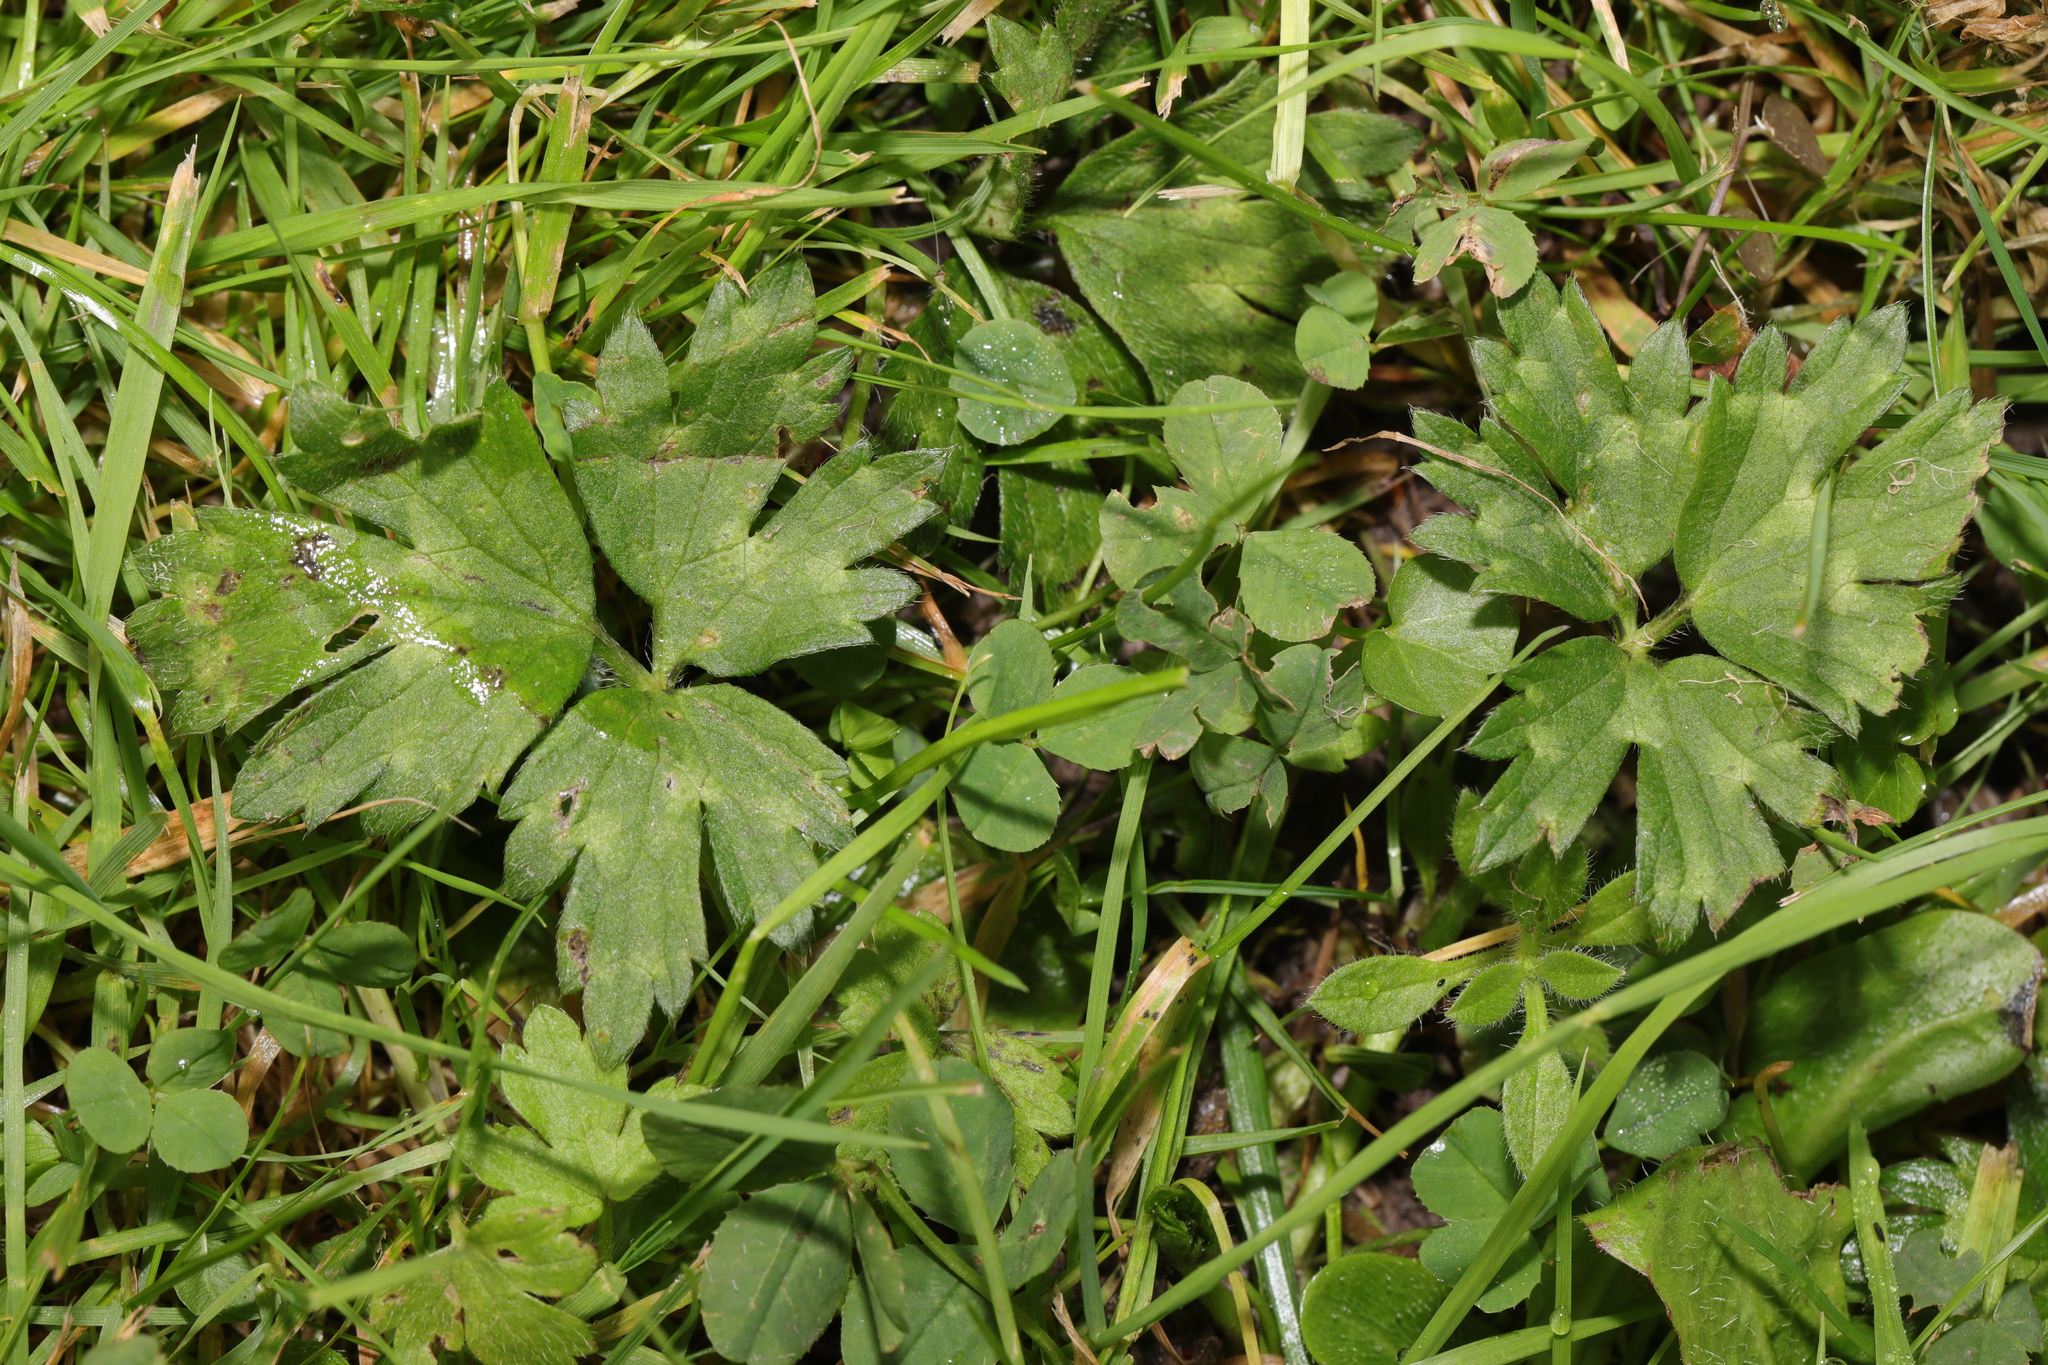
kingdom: Plantae
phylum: Tracheophyta
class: Magnoliopsida
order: Ranunculales
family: Ranunculaceae
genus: Ranunculus
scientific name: Ranunculus repens
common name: Creeping buttercup
